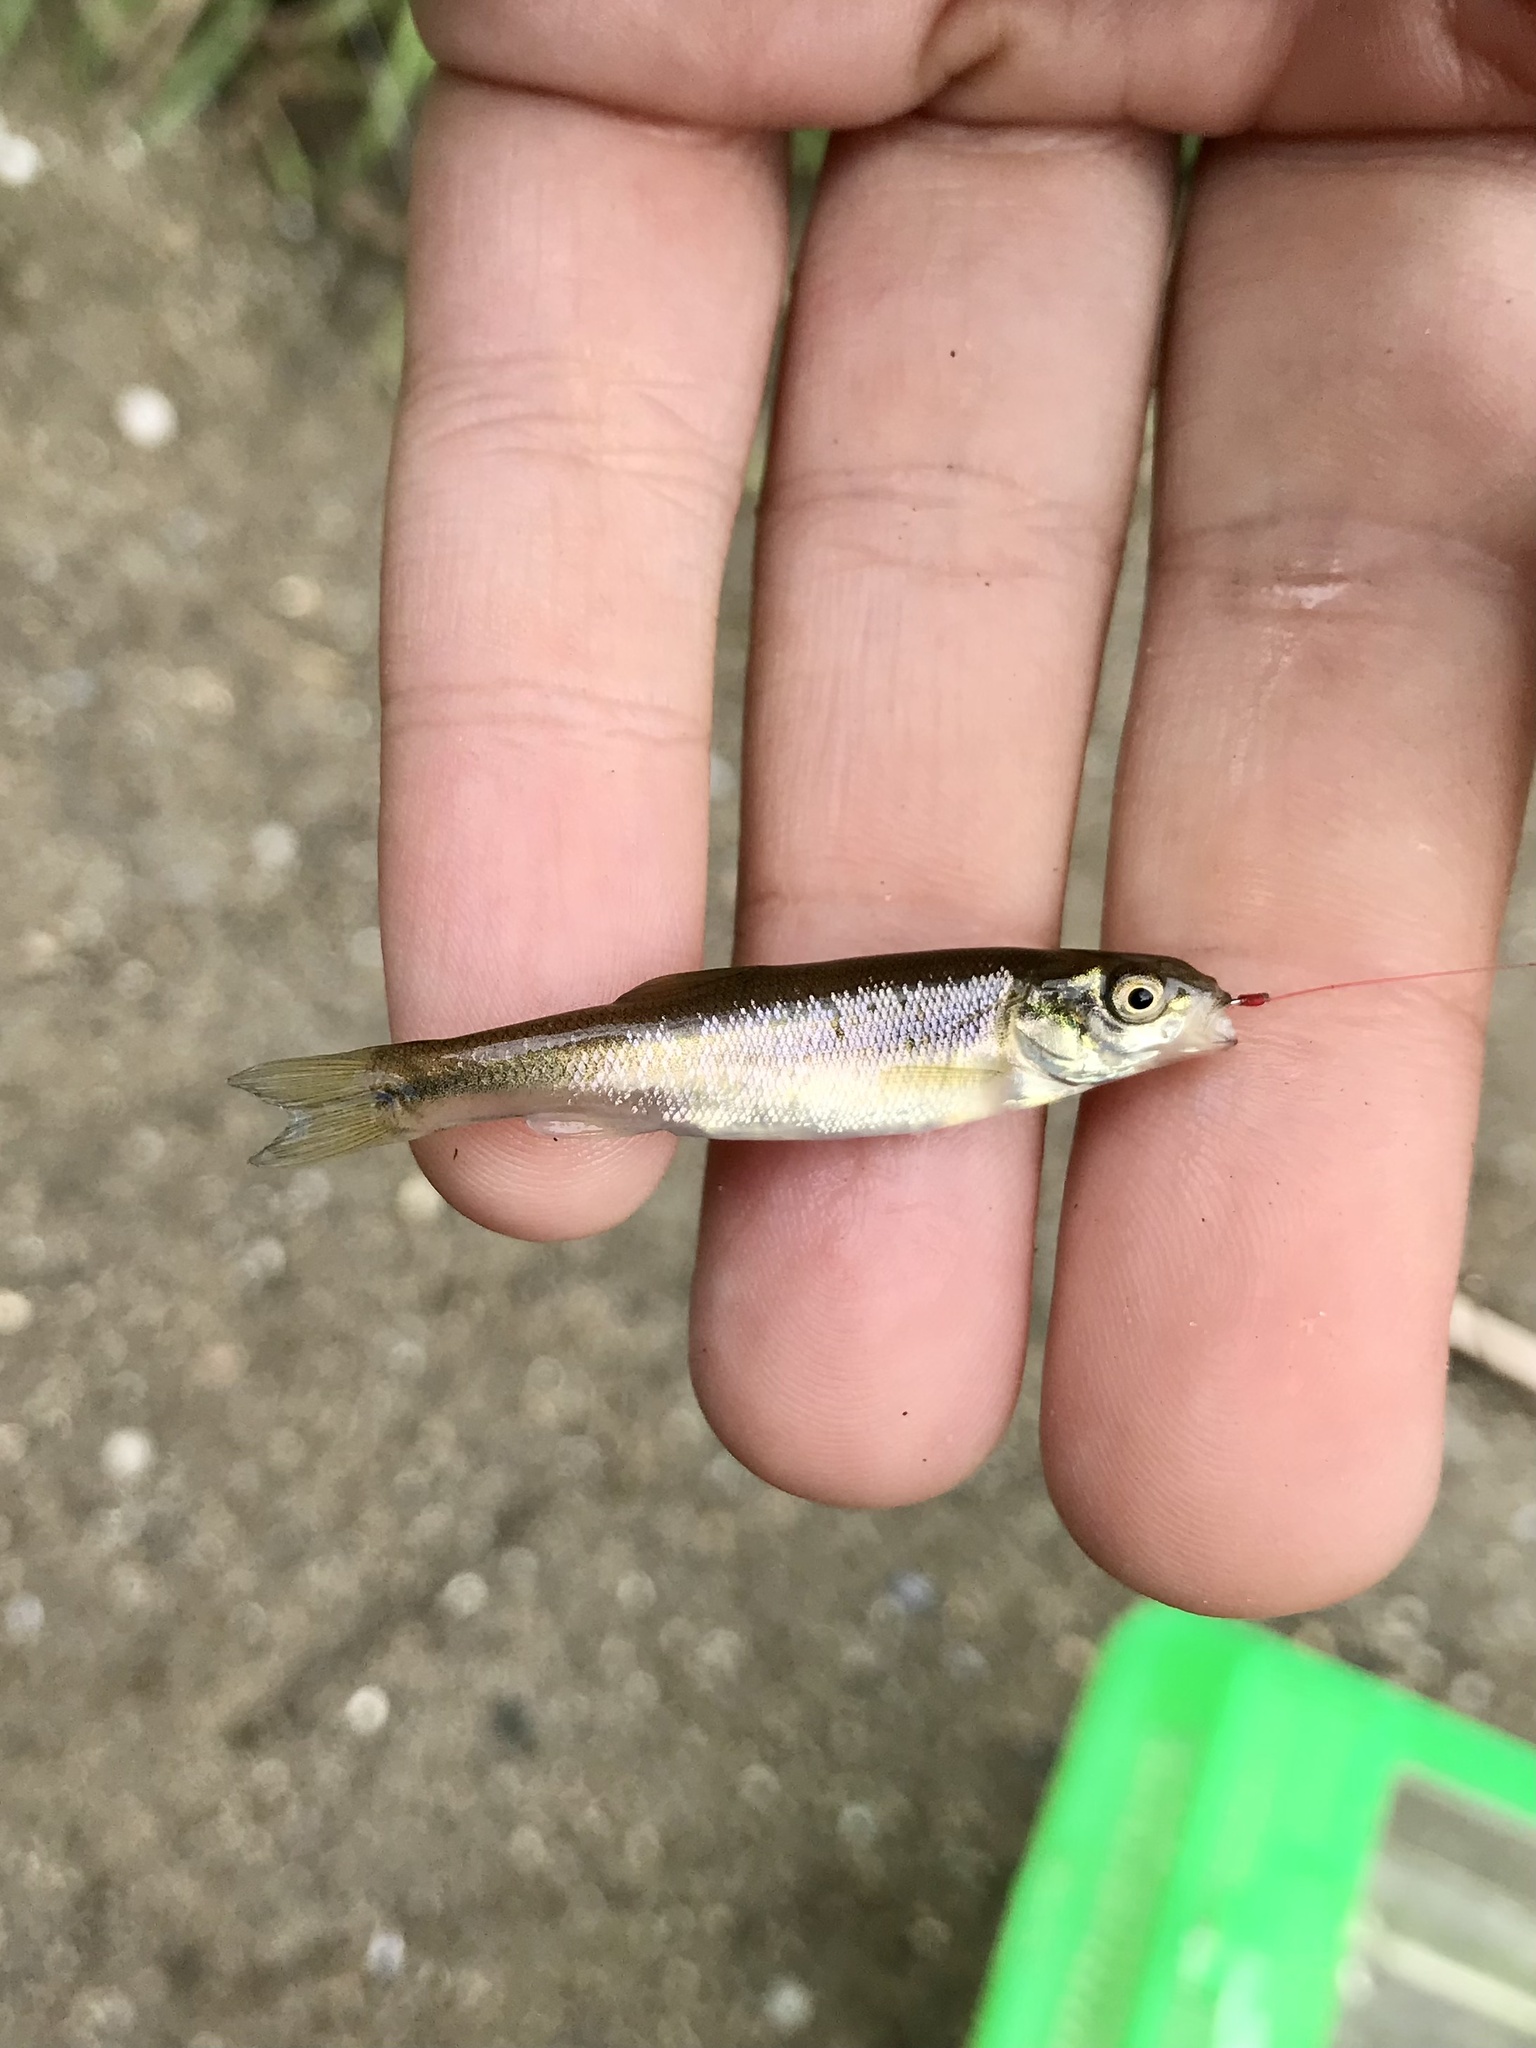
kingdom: Animalia
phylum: Chordata
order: Cypriniformes
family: Cyprinidae
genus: Semotilus
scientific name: Semotilus atromaculatus
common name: Creek chub
